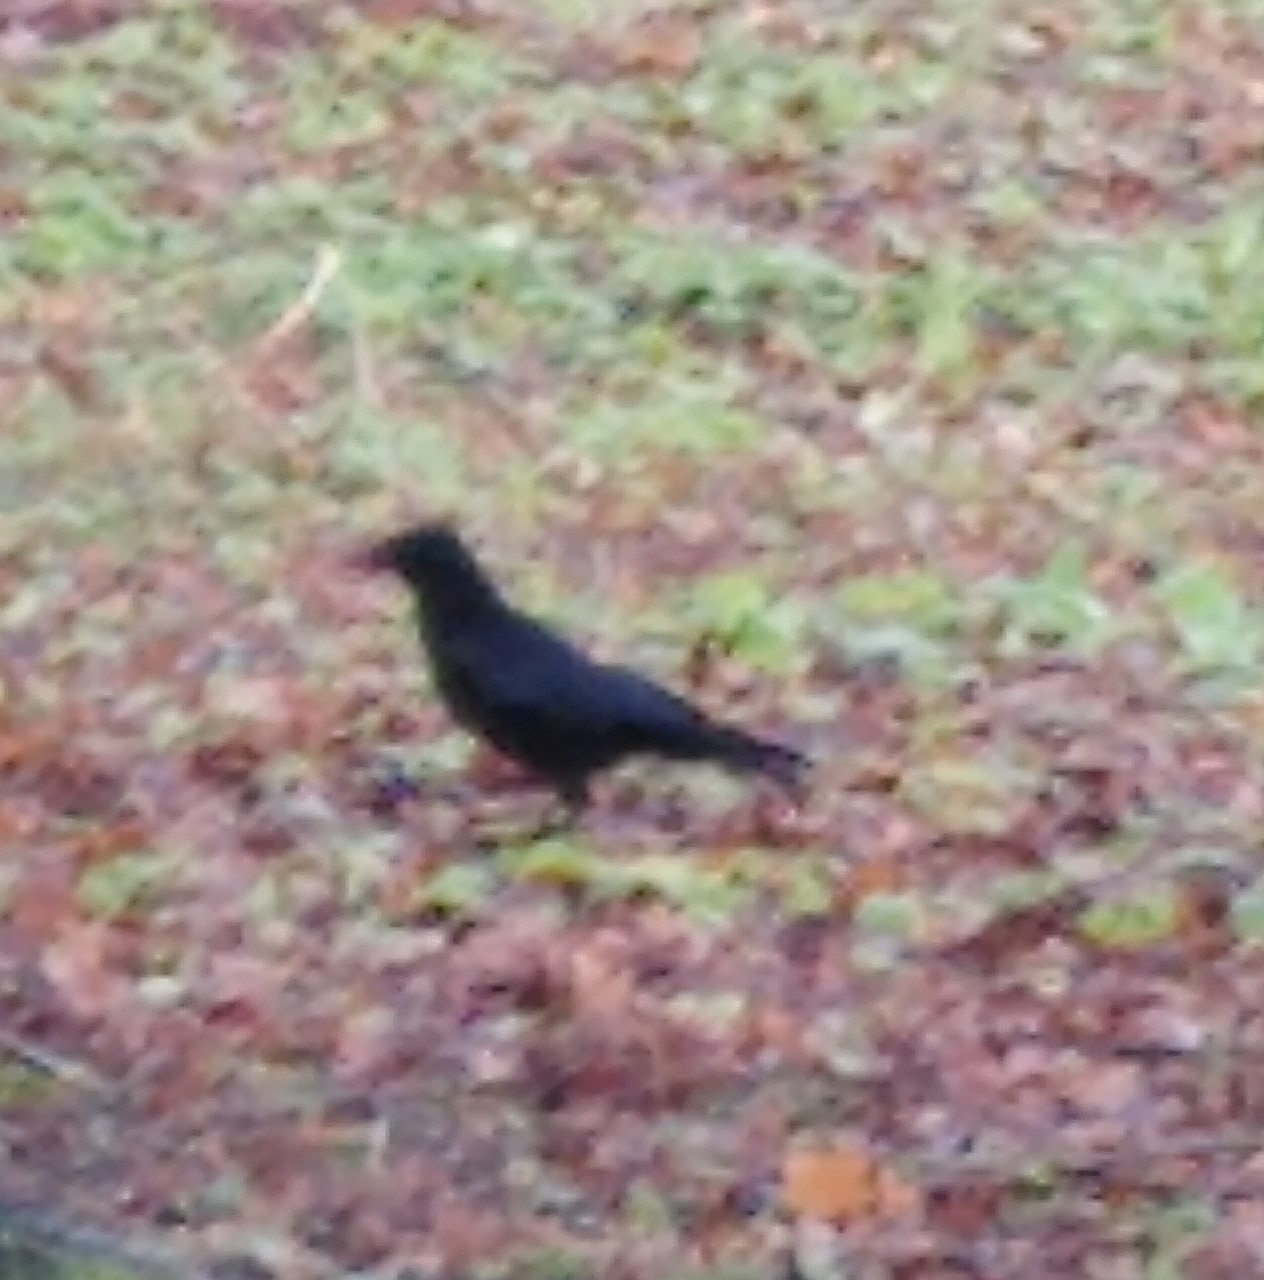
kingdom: Animalia
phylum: Chordata
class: Aves
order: Passeriformes
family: Corvidae
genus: Corvus
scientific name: Corvus corone
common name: Carrion crow
